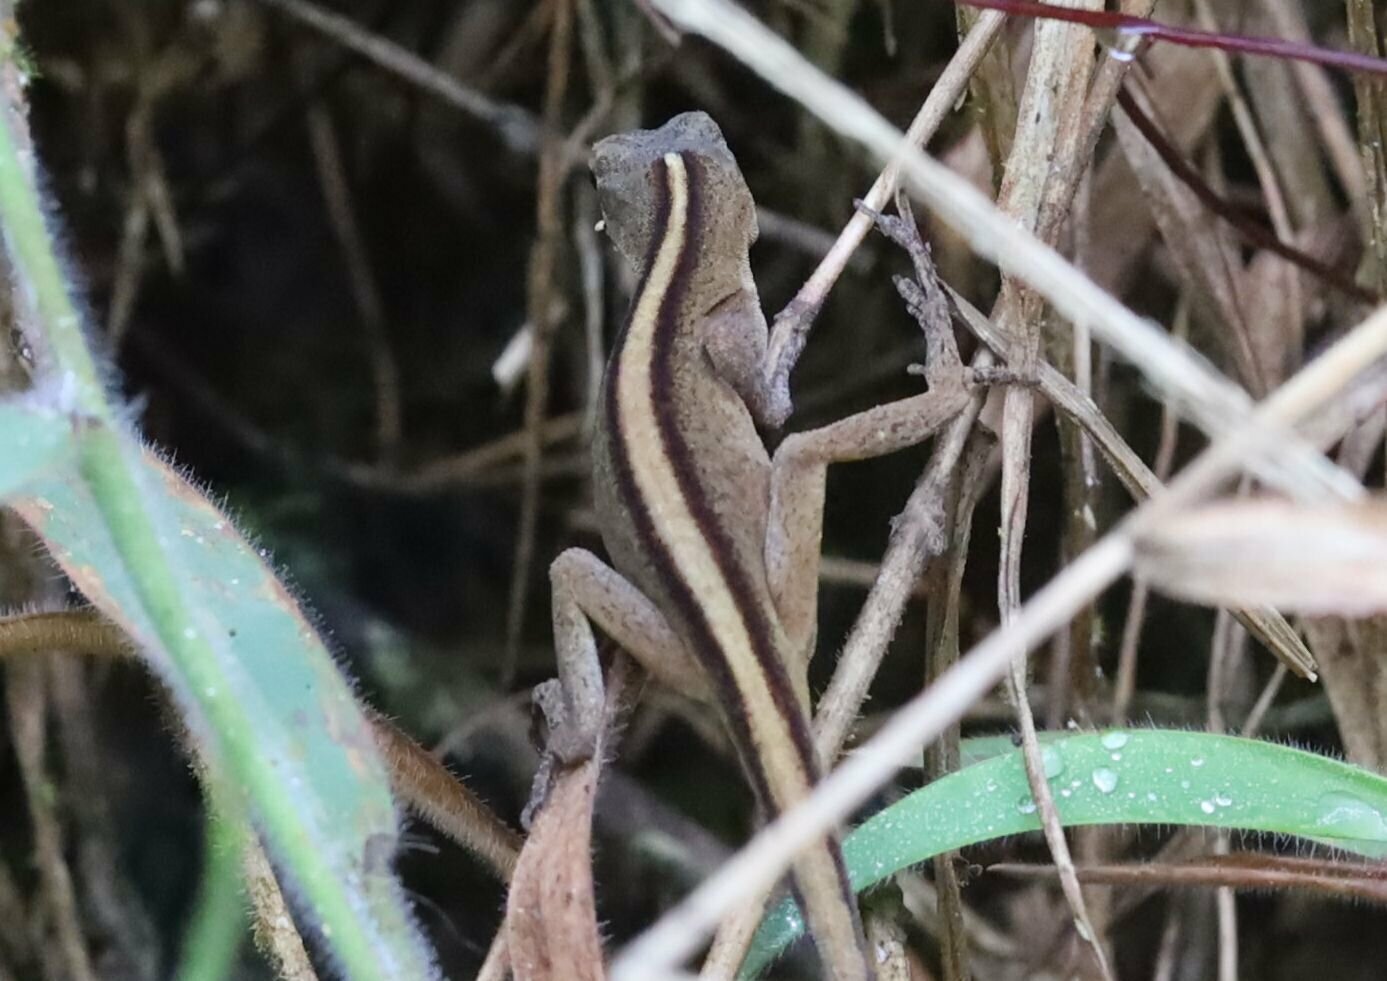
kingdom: Animalia
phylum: Chordata
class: Squamata
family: Dactyloidae
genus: Anolis
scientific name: Anolis mariarum
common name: Blemished anole
